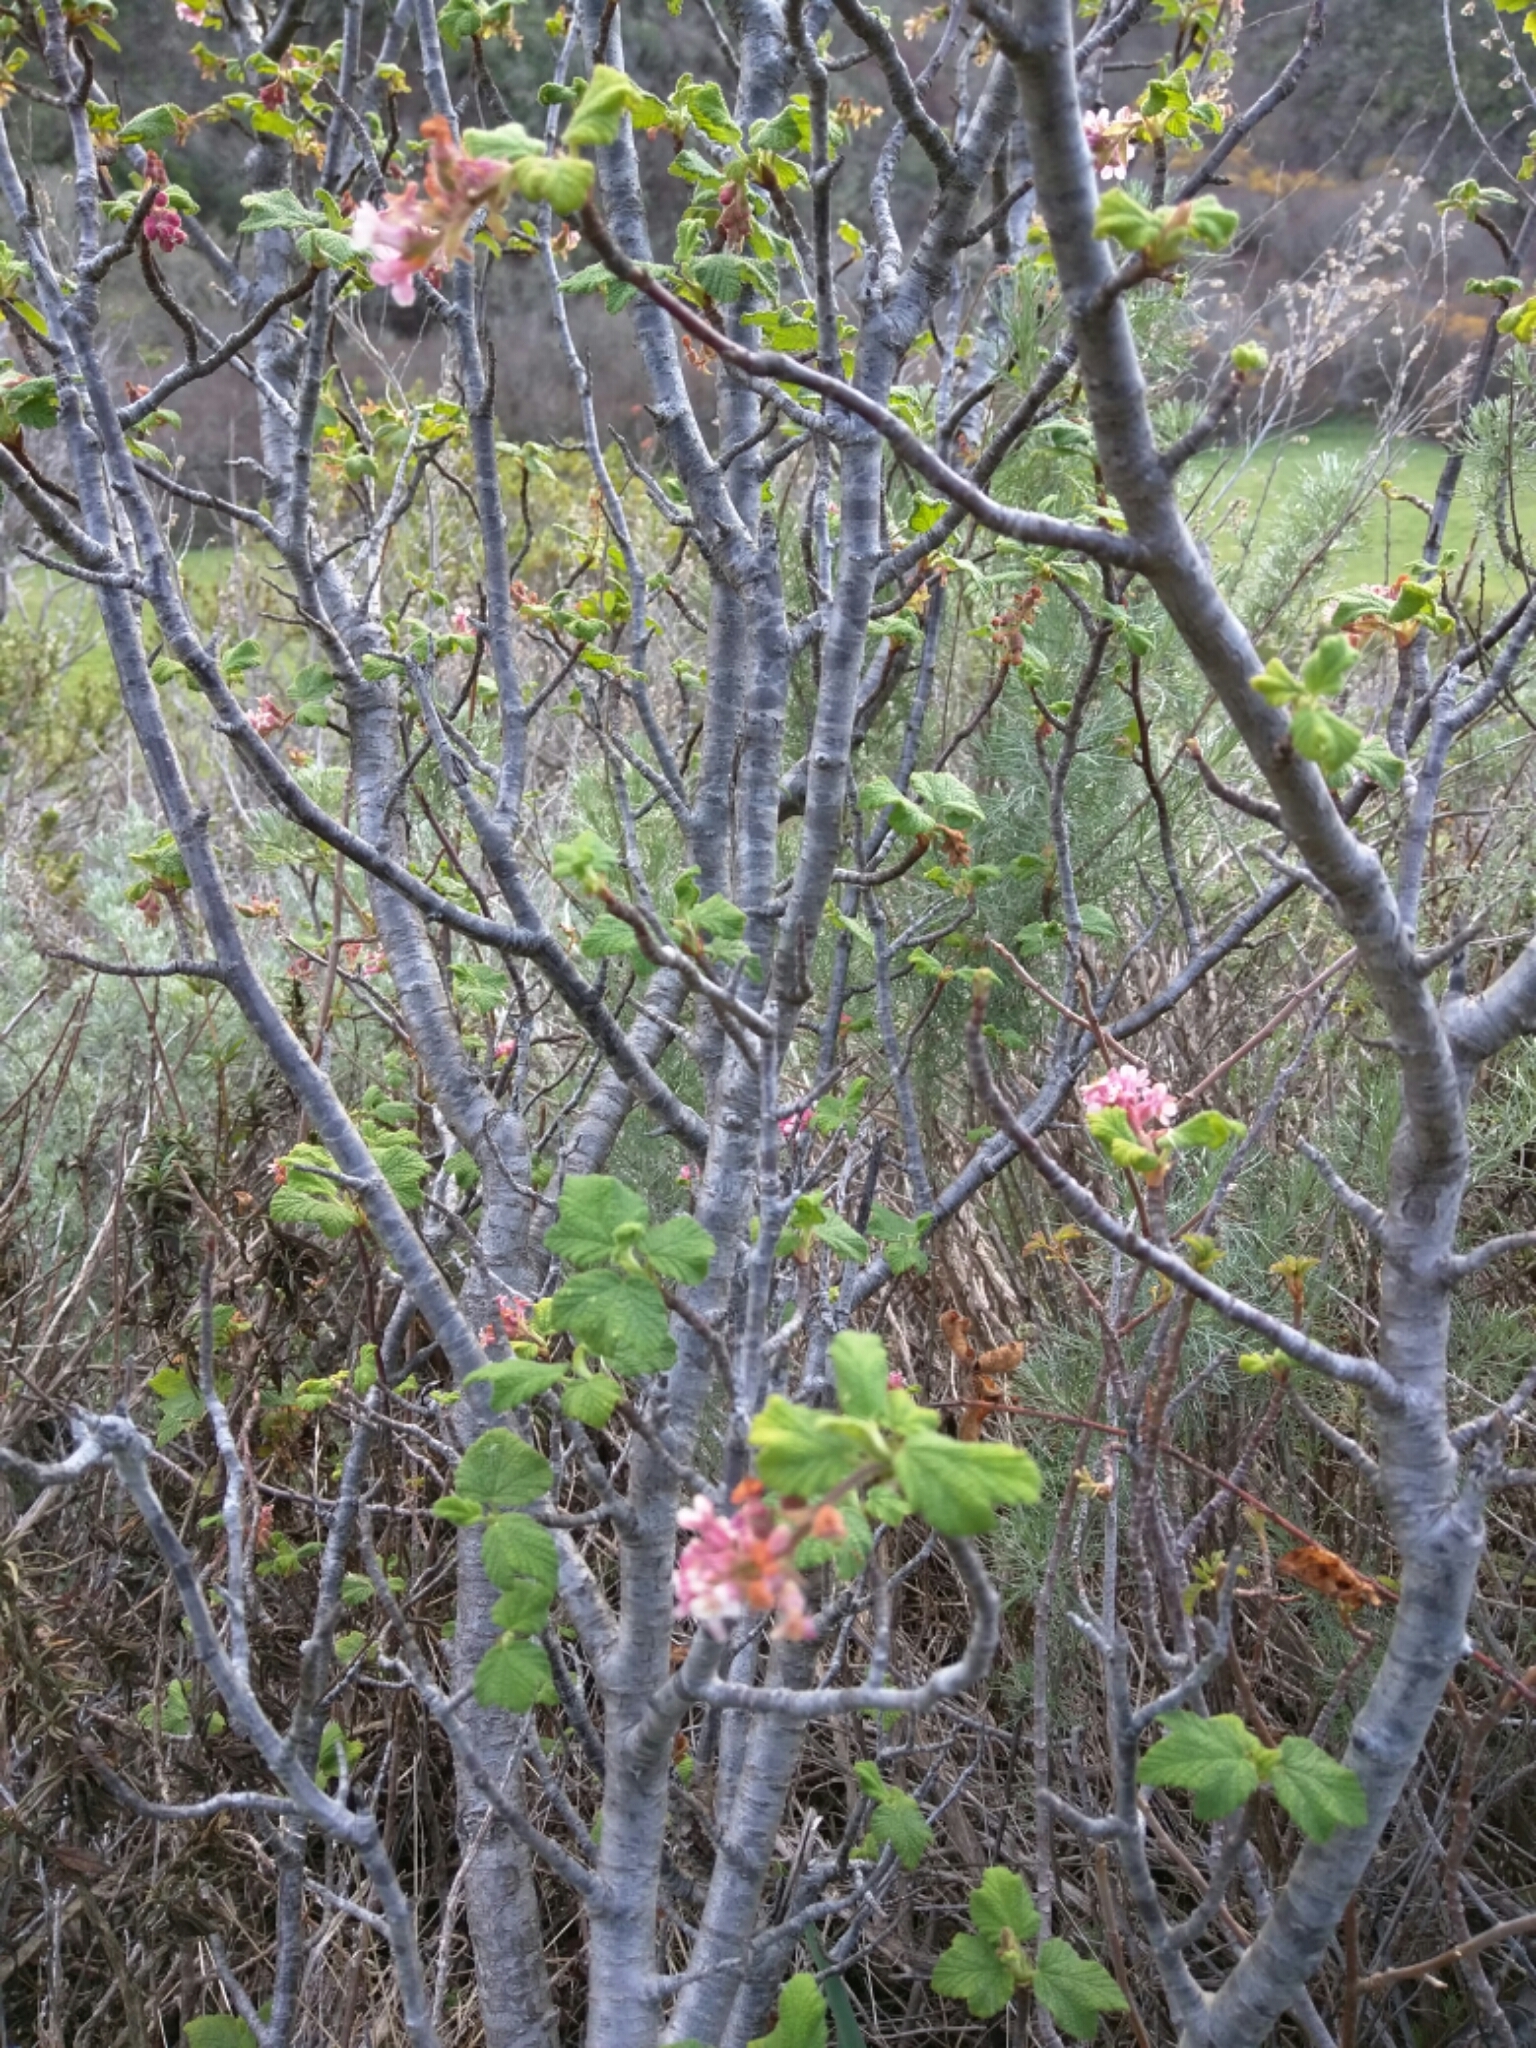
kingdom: Plantae
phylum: Tracheophyta
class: Magnoliopsida
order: Saxifragales
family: Grossulariaceae
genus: Ribes
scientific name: Ribes malvaceum
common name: Chaparral currant
